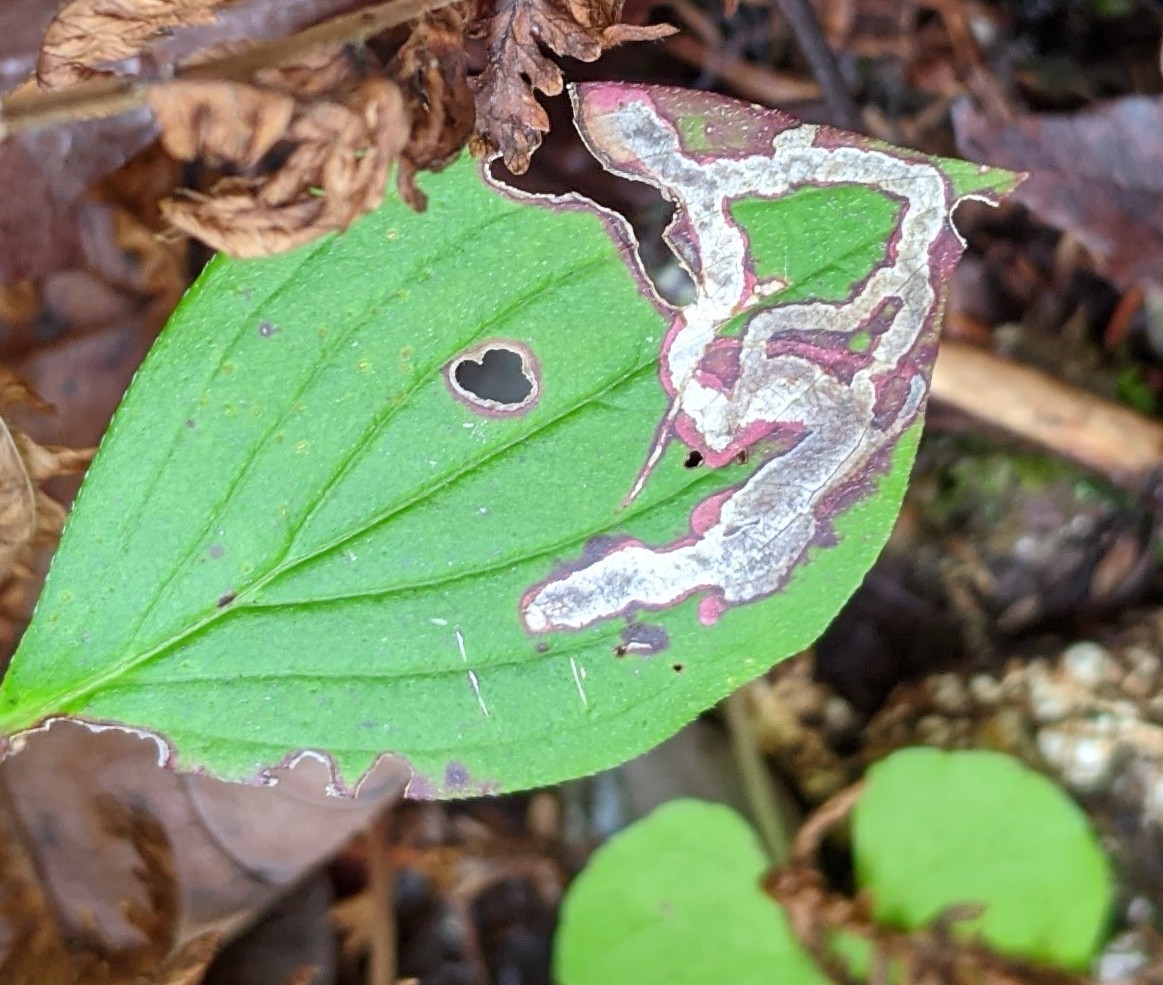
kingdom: Animalia
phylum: Arthropoda
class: Insecta
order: Diptera
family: Agromyzidae
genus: Phytomyza
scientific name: Phytomyza agromyzina
